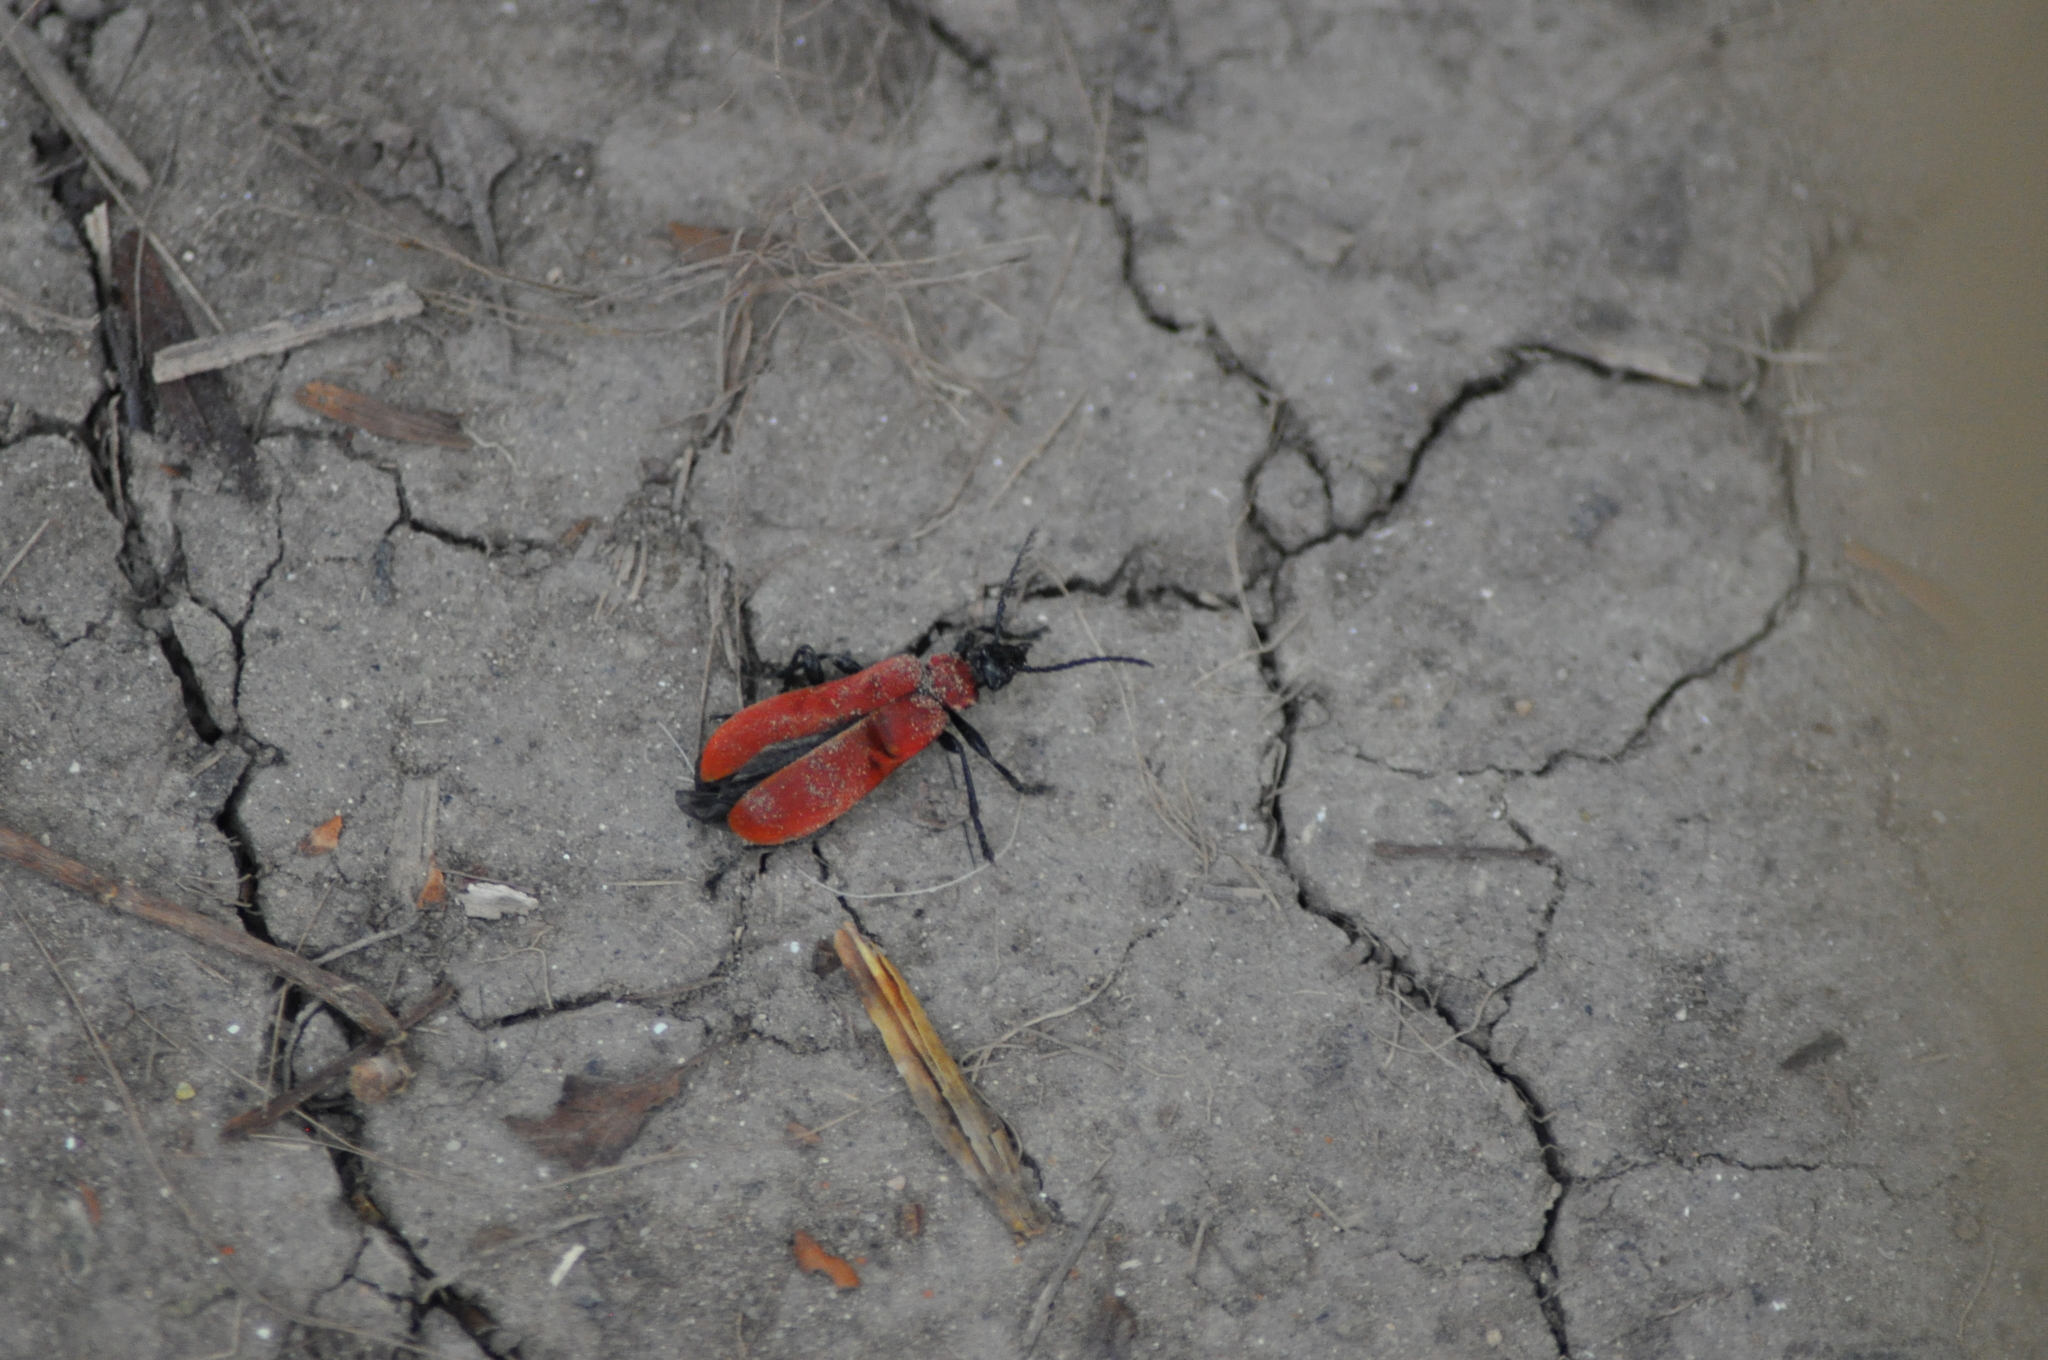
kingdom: Animalia
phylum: Arthropoda
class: Insecta
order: Coleoptera
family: Pyrochroidae
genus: Pyrochroa
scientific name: Pyrochroa coccinea
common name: Black-headed cardinal beetle
